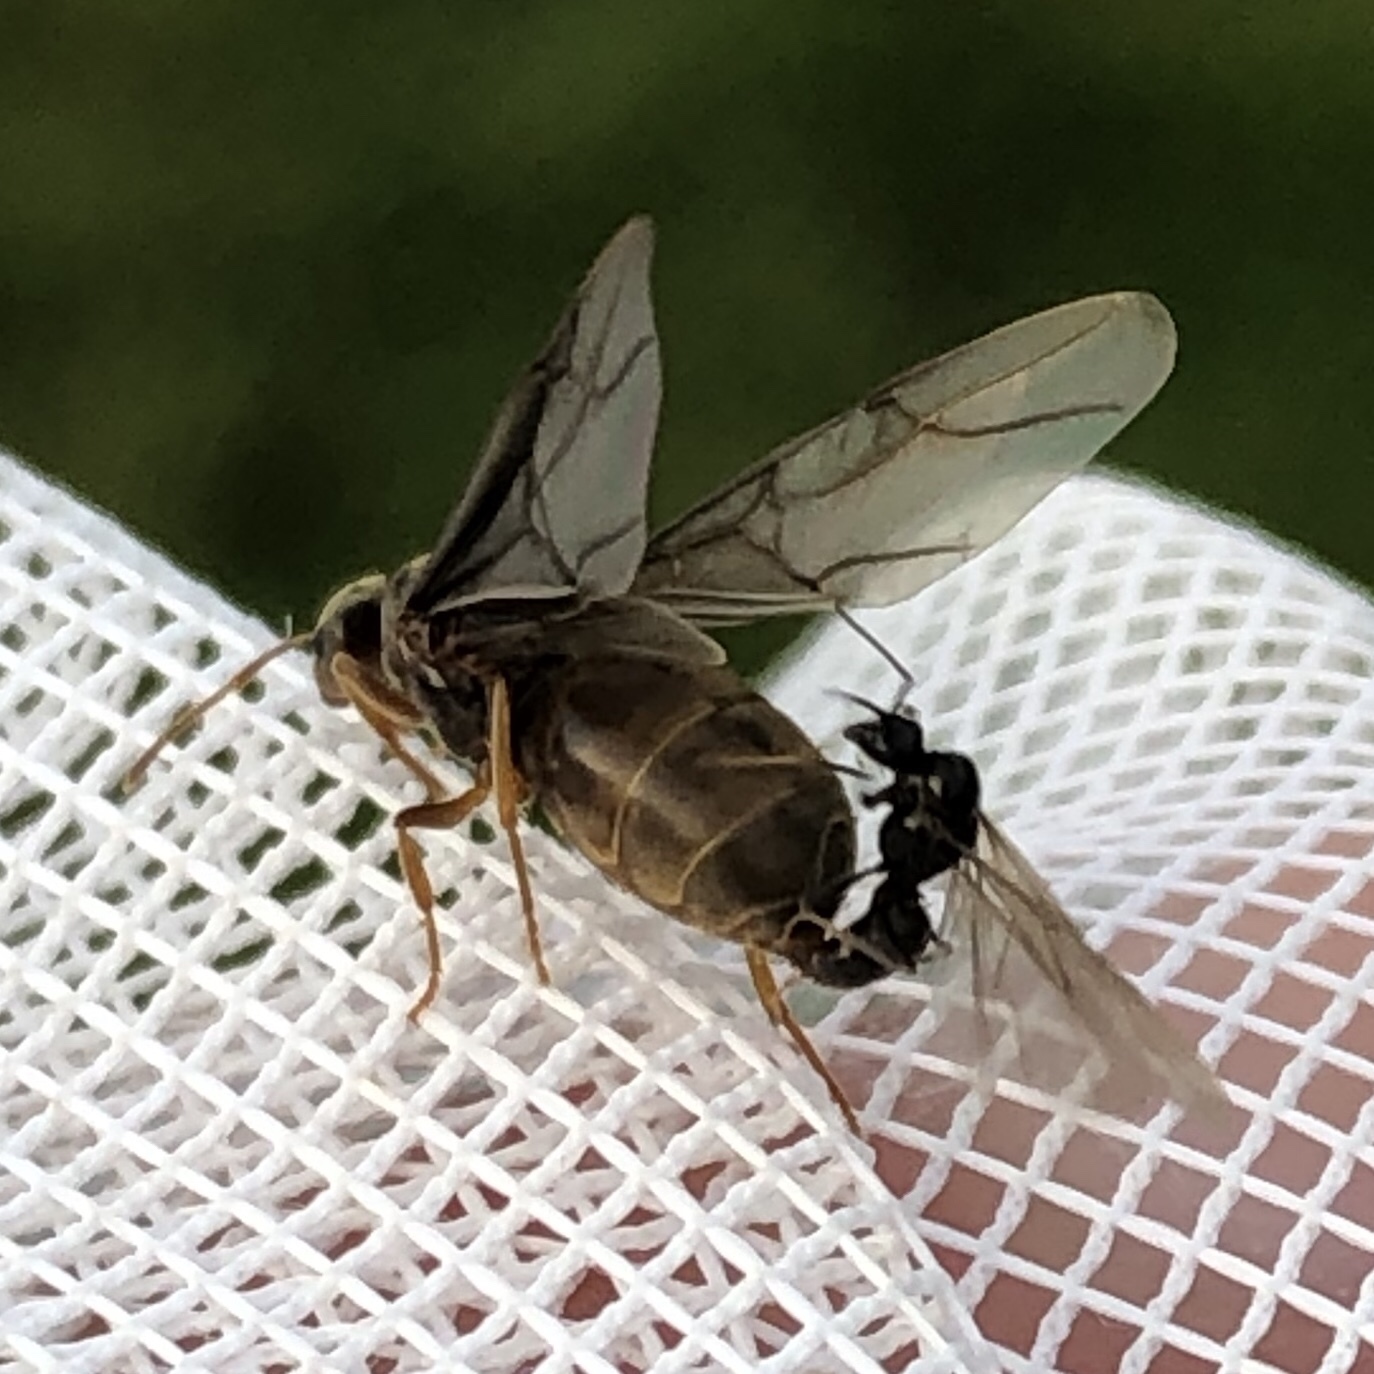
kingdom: Animalia
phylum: Arthropoda
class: Insecta
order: Hymenoptera
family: Formicidae
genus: Lasius
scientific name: Lasius neoniger
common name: Turfgrass ant
